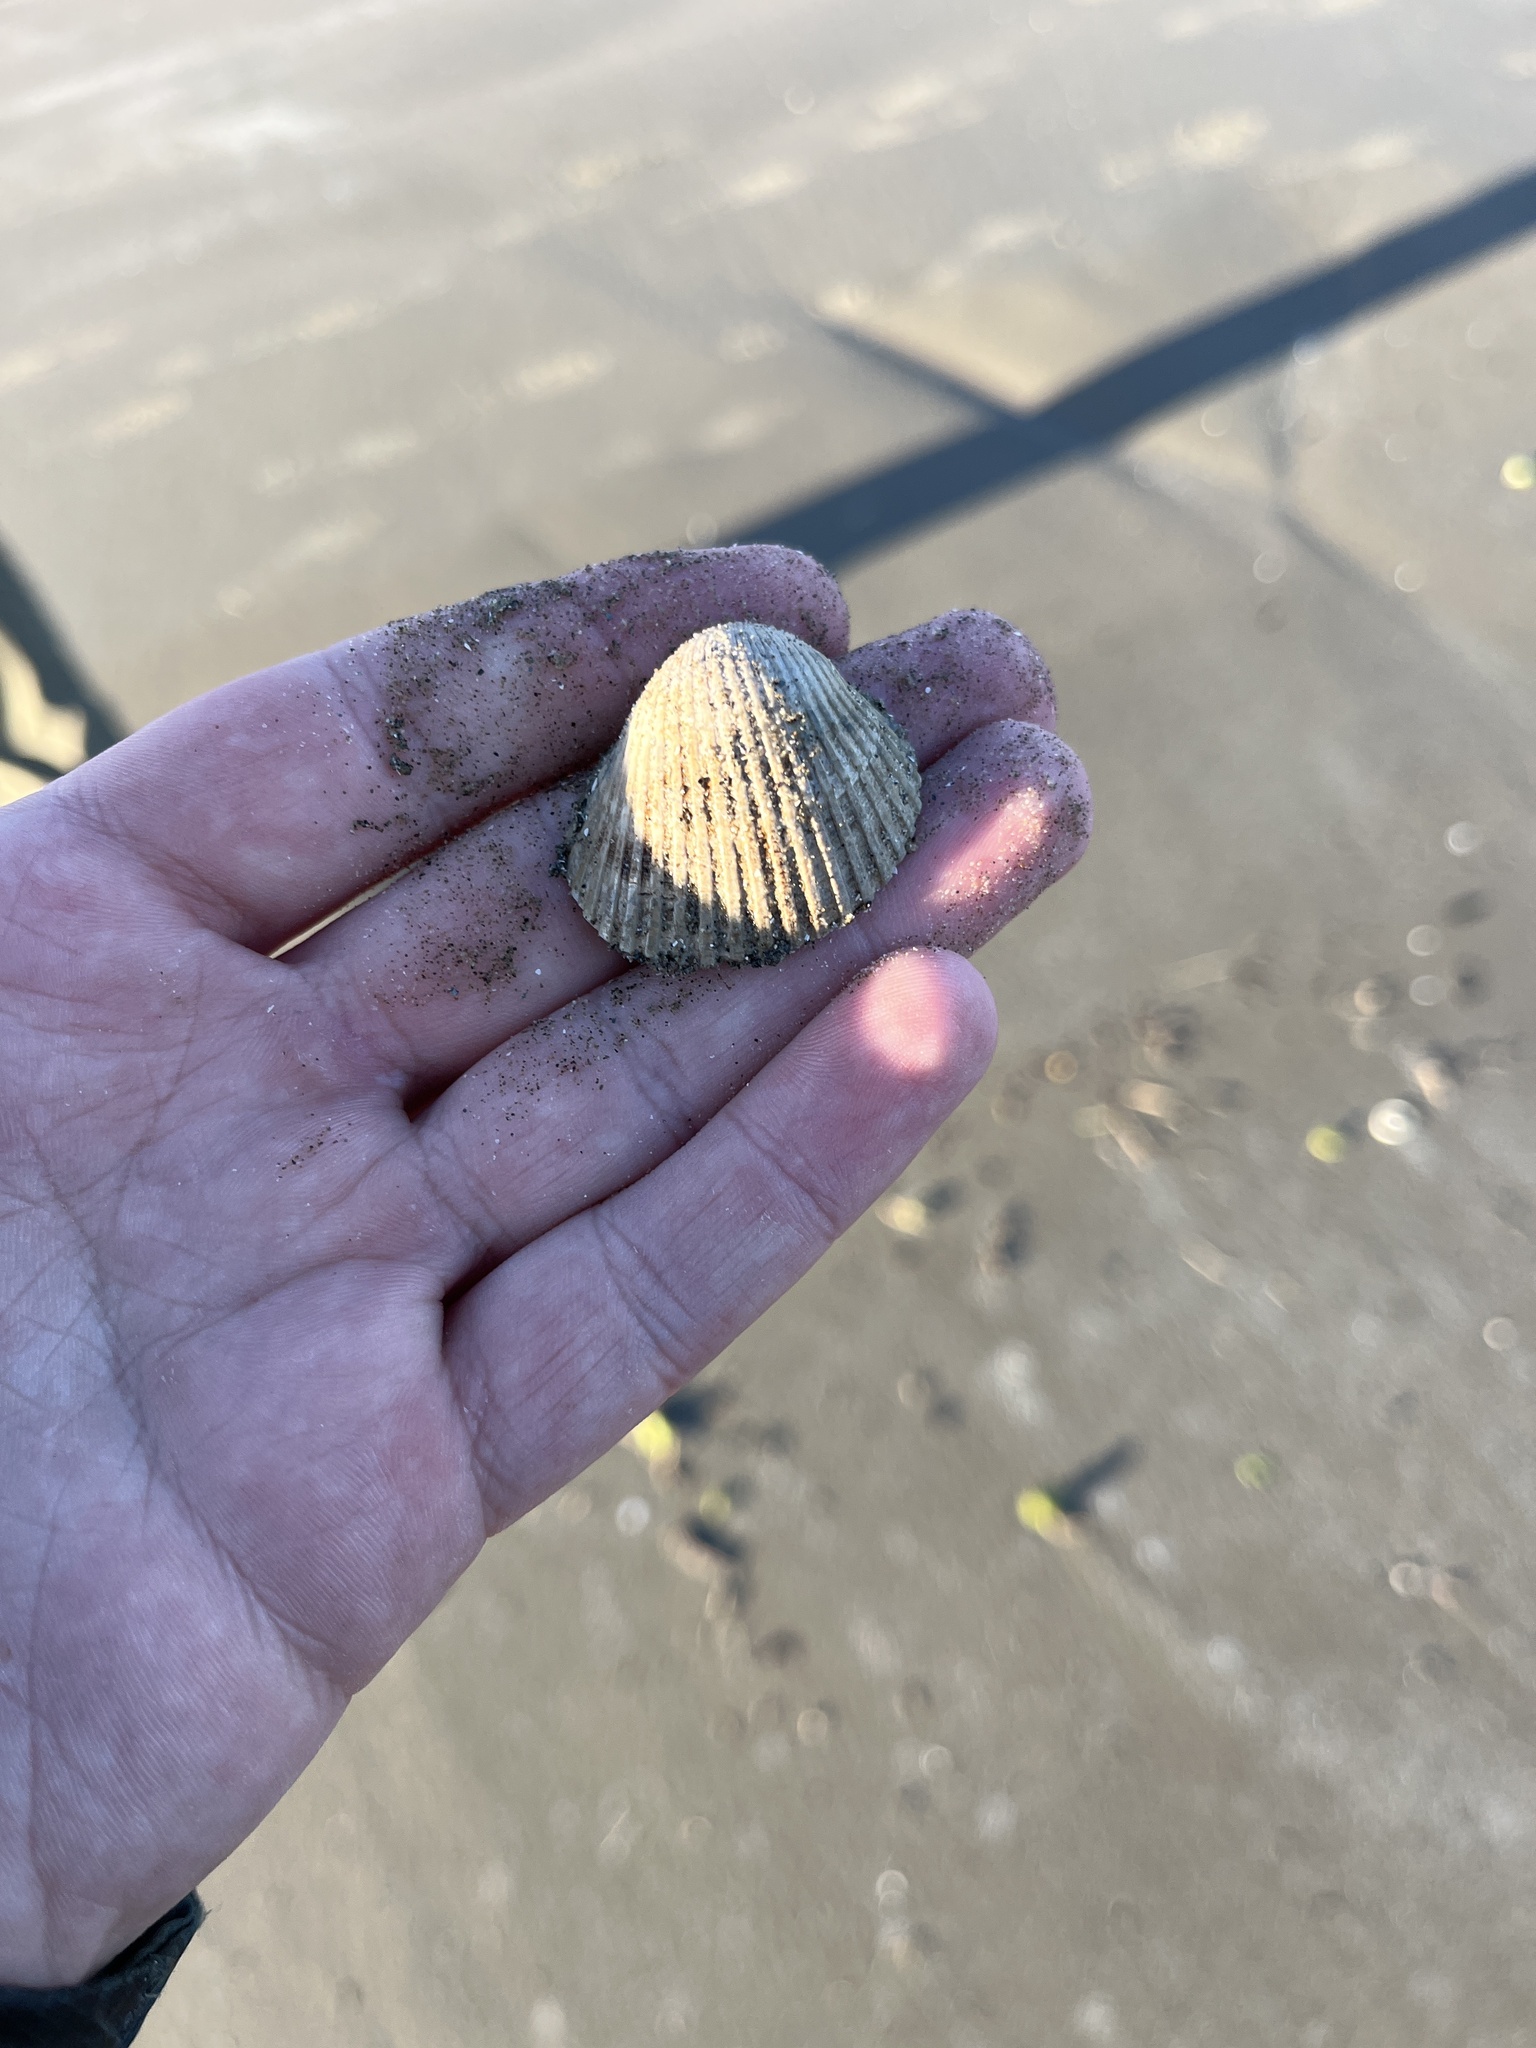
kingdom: Animalia
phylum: Mollusca
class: Bivalvia
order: Arcida
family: Arcidae
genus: Anadara
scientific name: Anadara brasiliana
